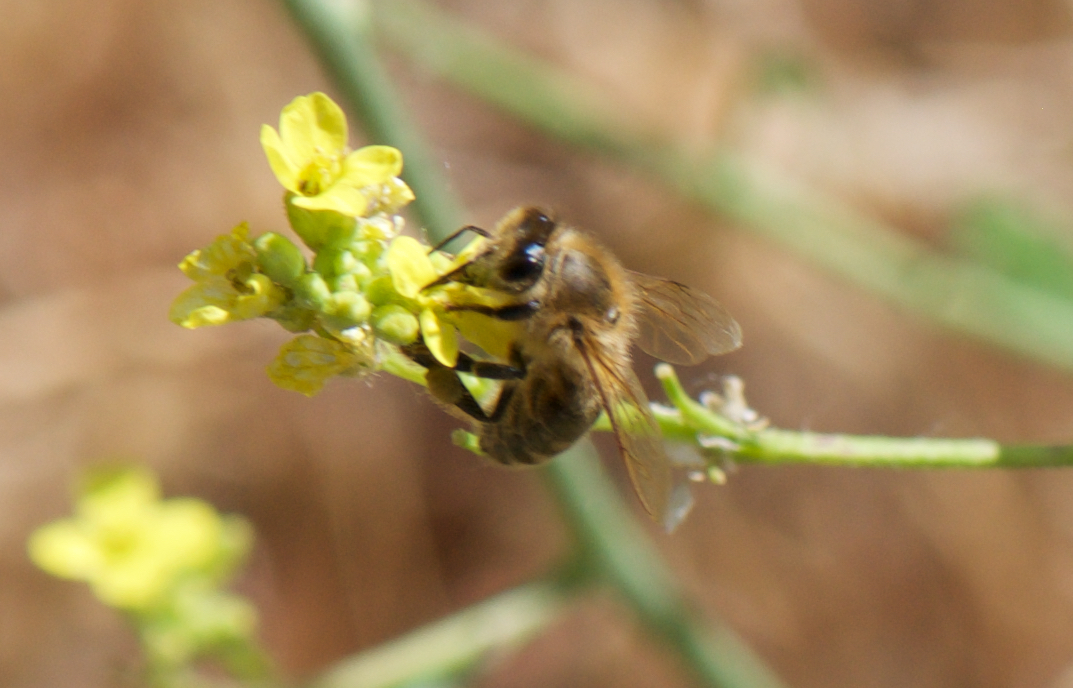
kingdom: Animalia
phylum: Arthropoda
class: Insecta
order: Hymenoptera
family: Apidae
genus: Apis
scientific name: Apis mellifera
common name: Honey bee
